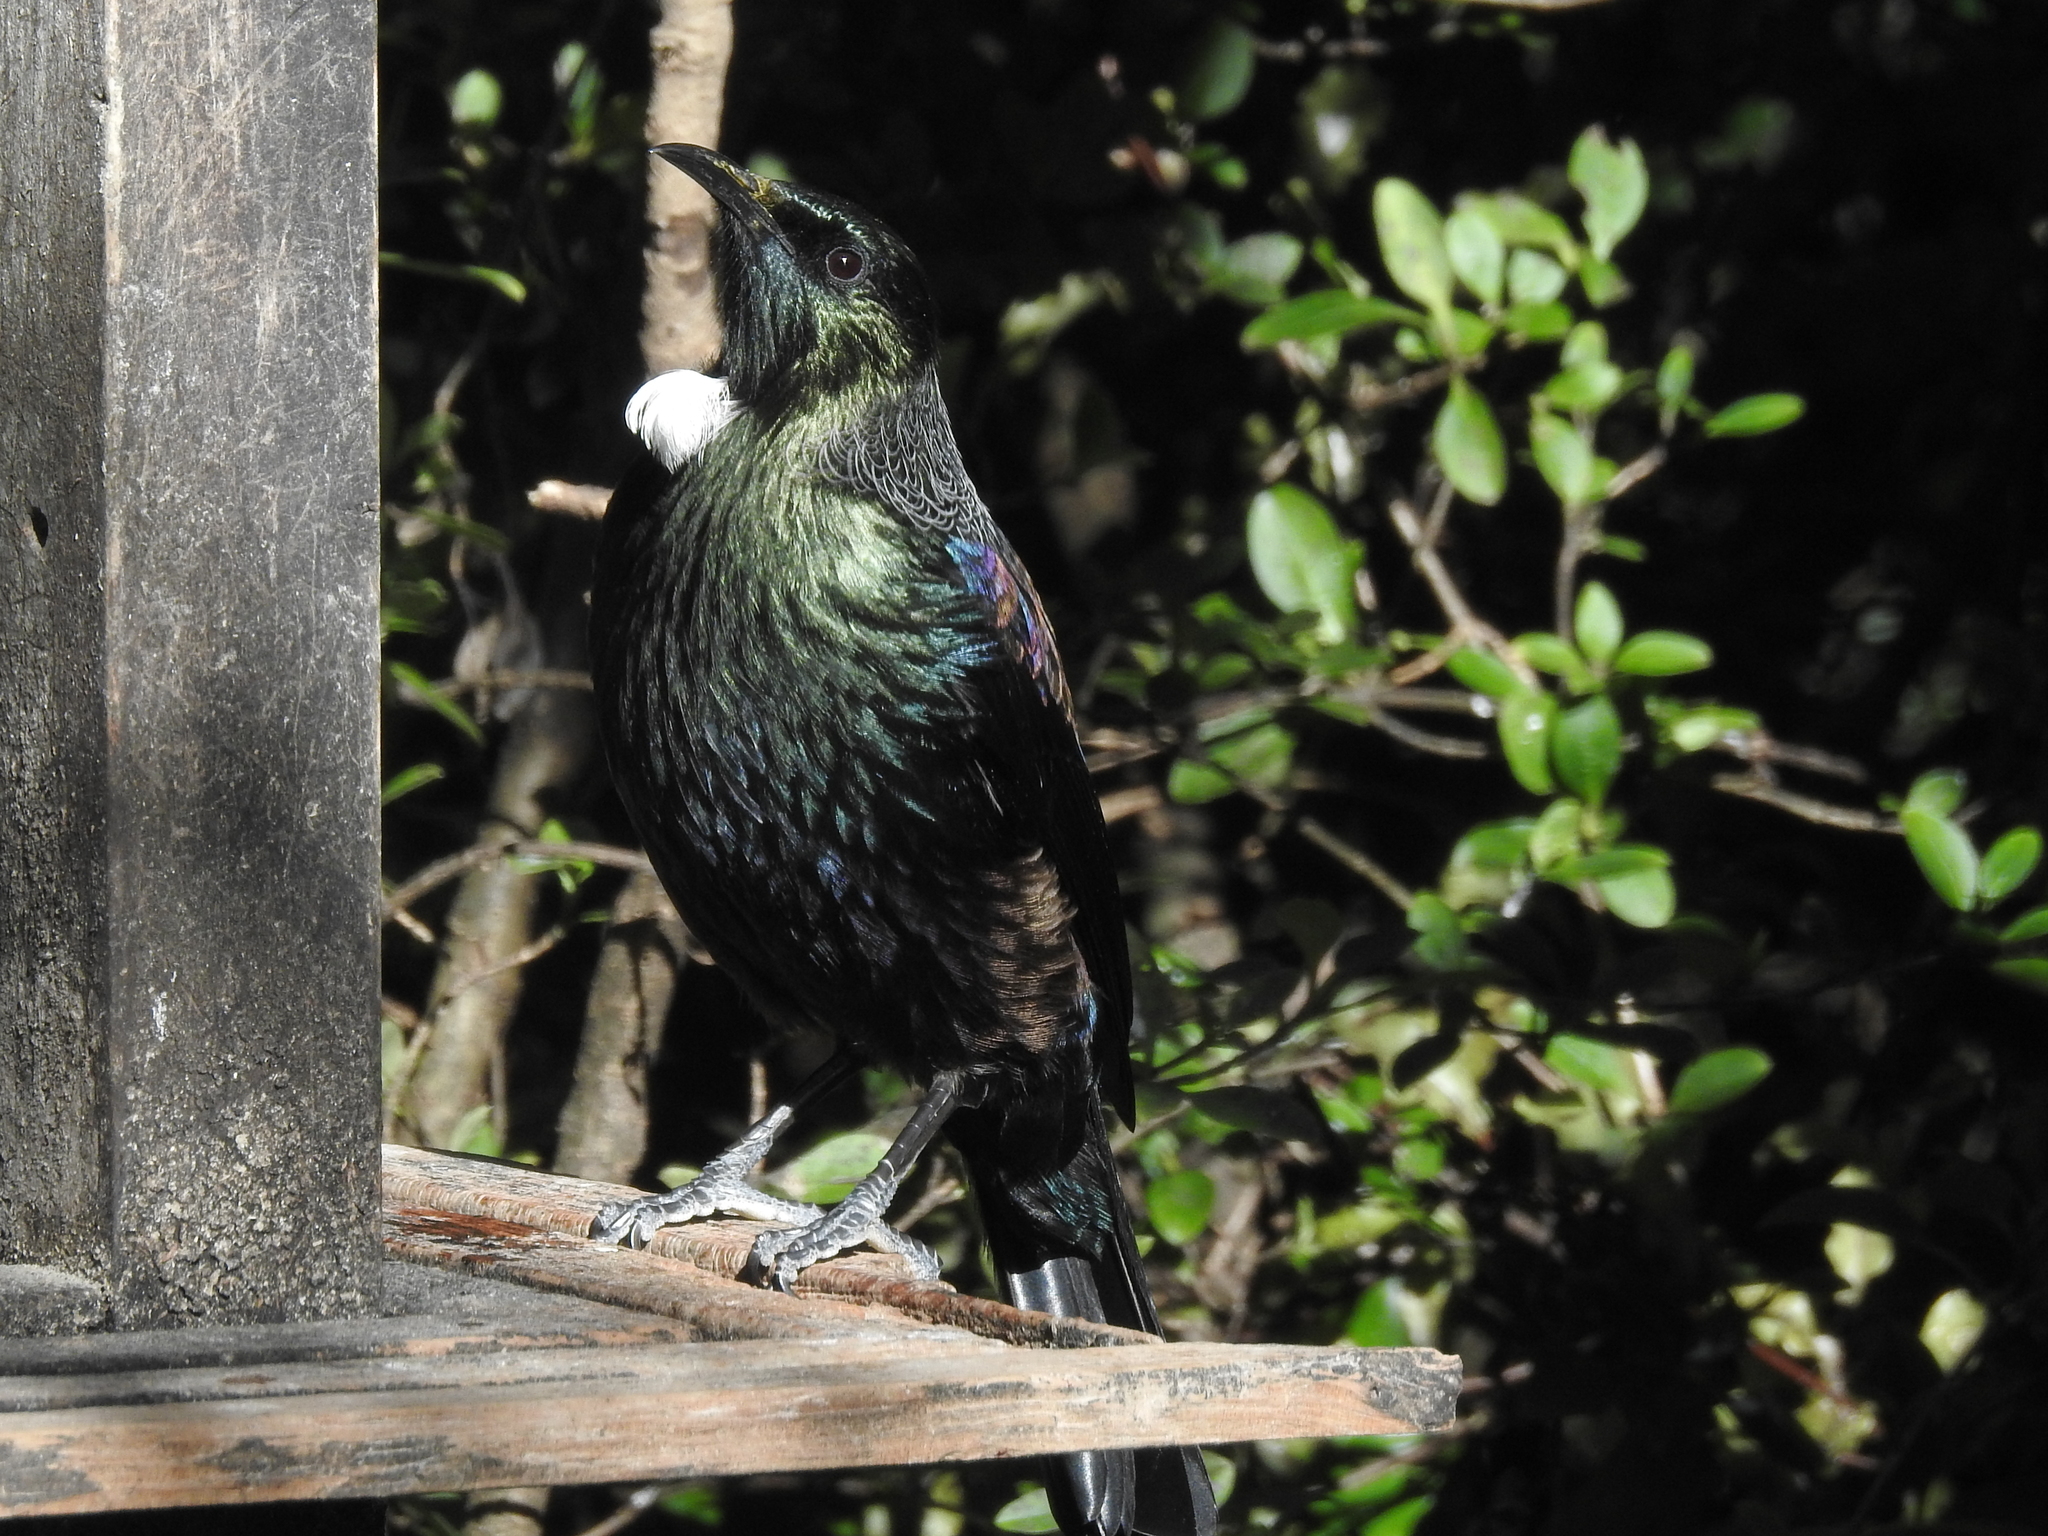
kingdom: Animalia
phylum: Chordata
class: Aves
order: Passeriformes
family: Meliphagidae
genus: Prosthemadera
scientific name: Prosthemadera novaeseelandiae
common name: Tui
